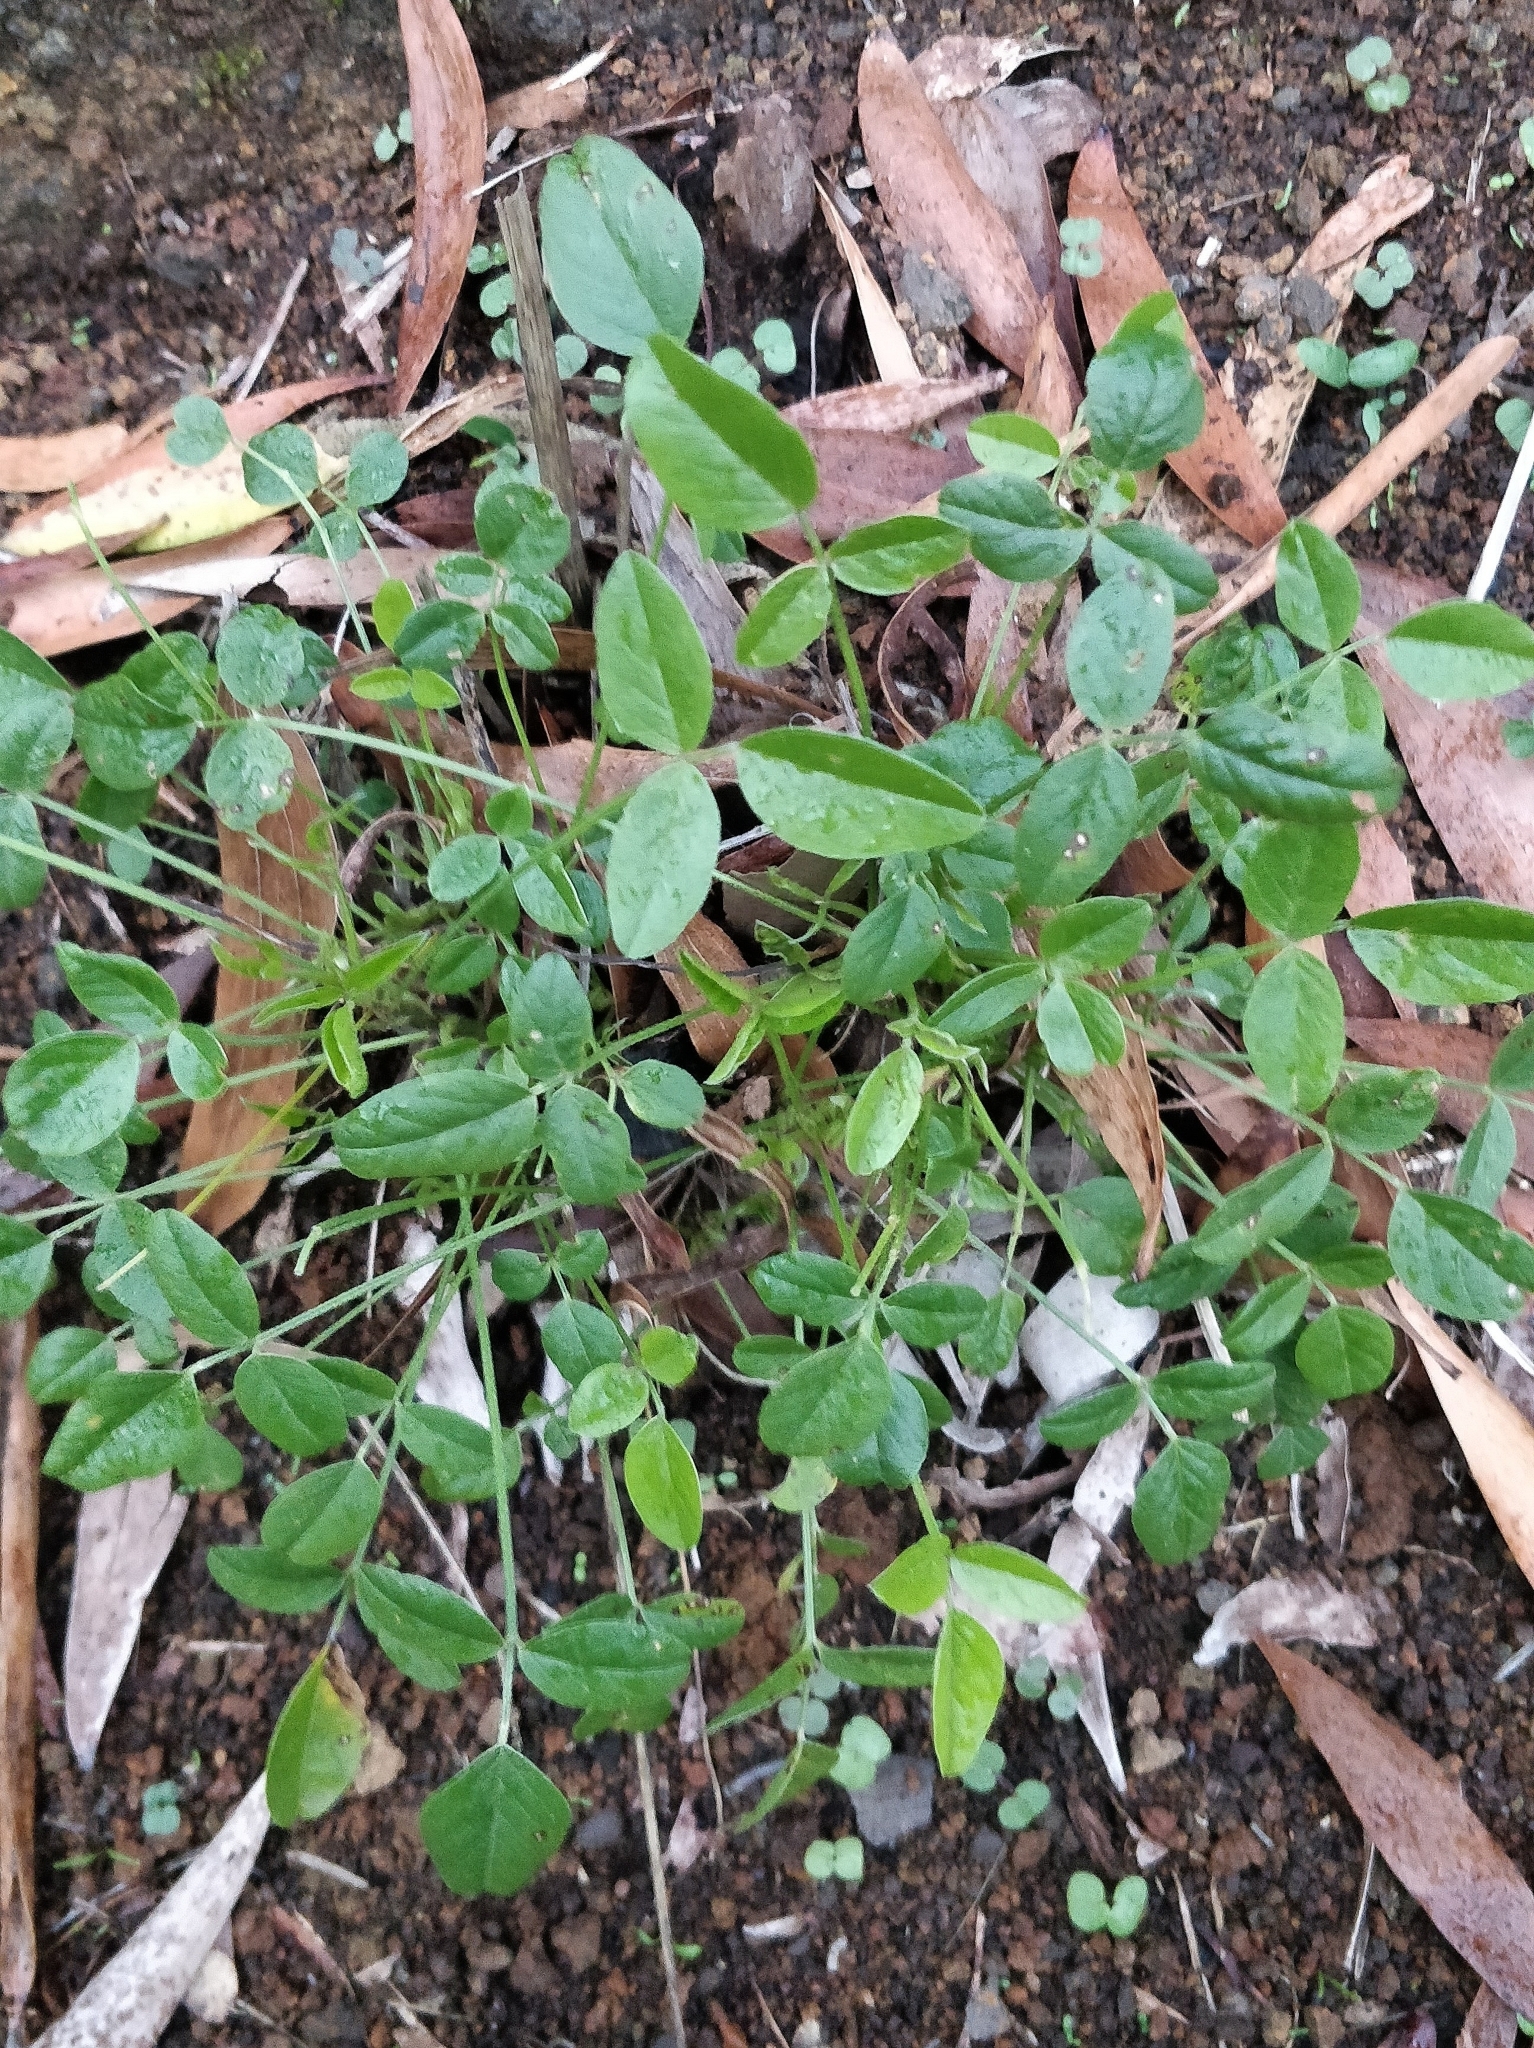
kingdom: Plantae
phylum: Tracheophyta
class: Magnoliopsida
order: Fabales
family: Fabaceae
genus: Bituminaria
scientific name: Bituminaria bituminosa
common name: Arabian pea
